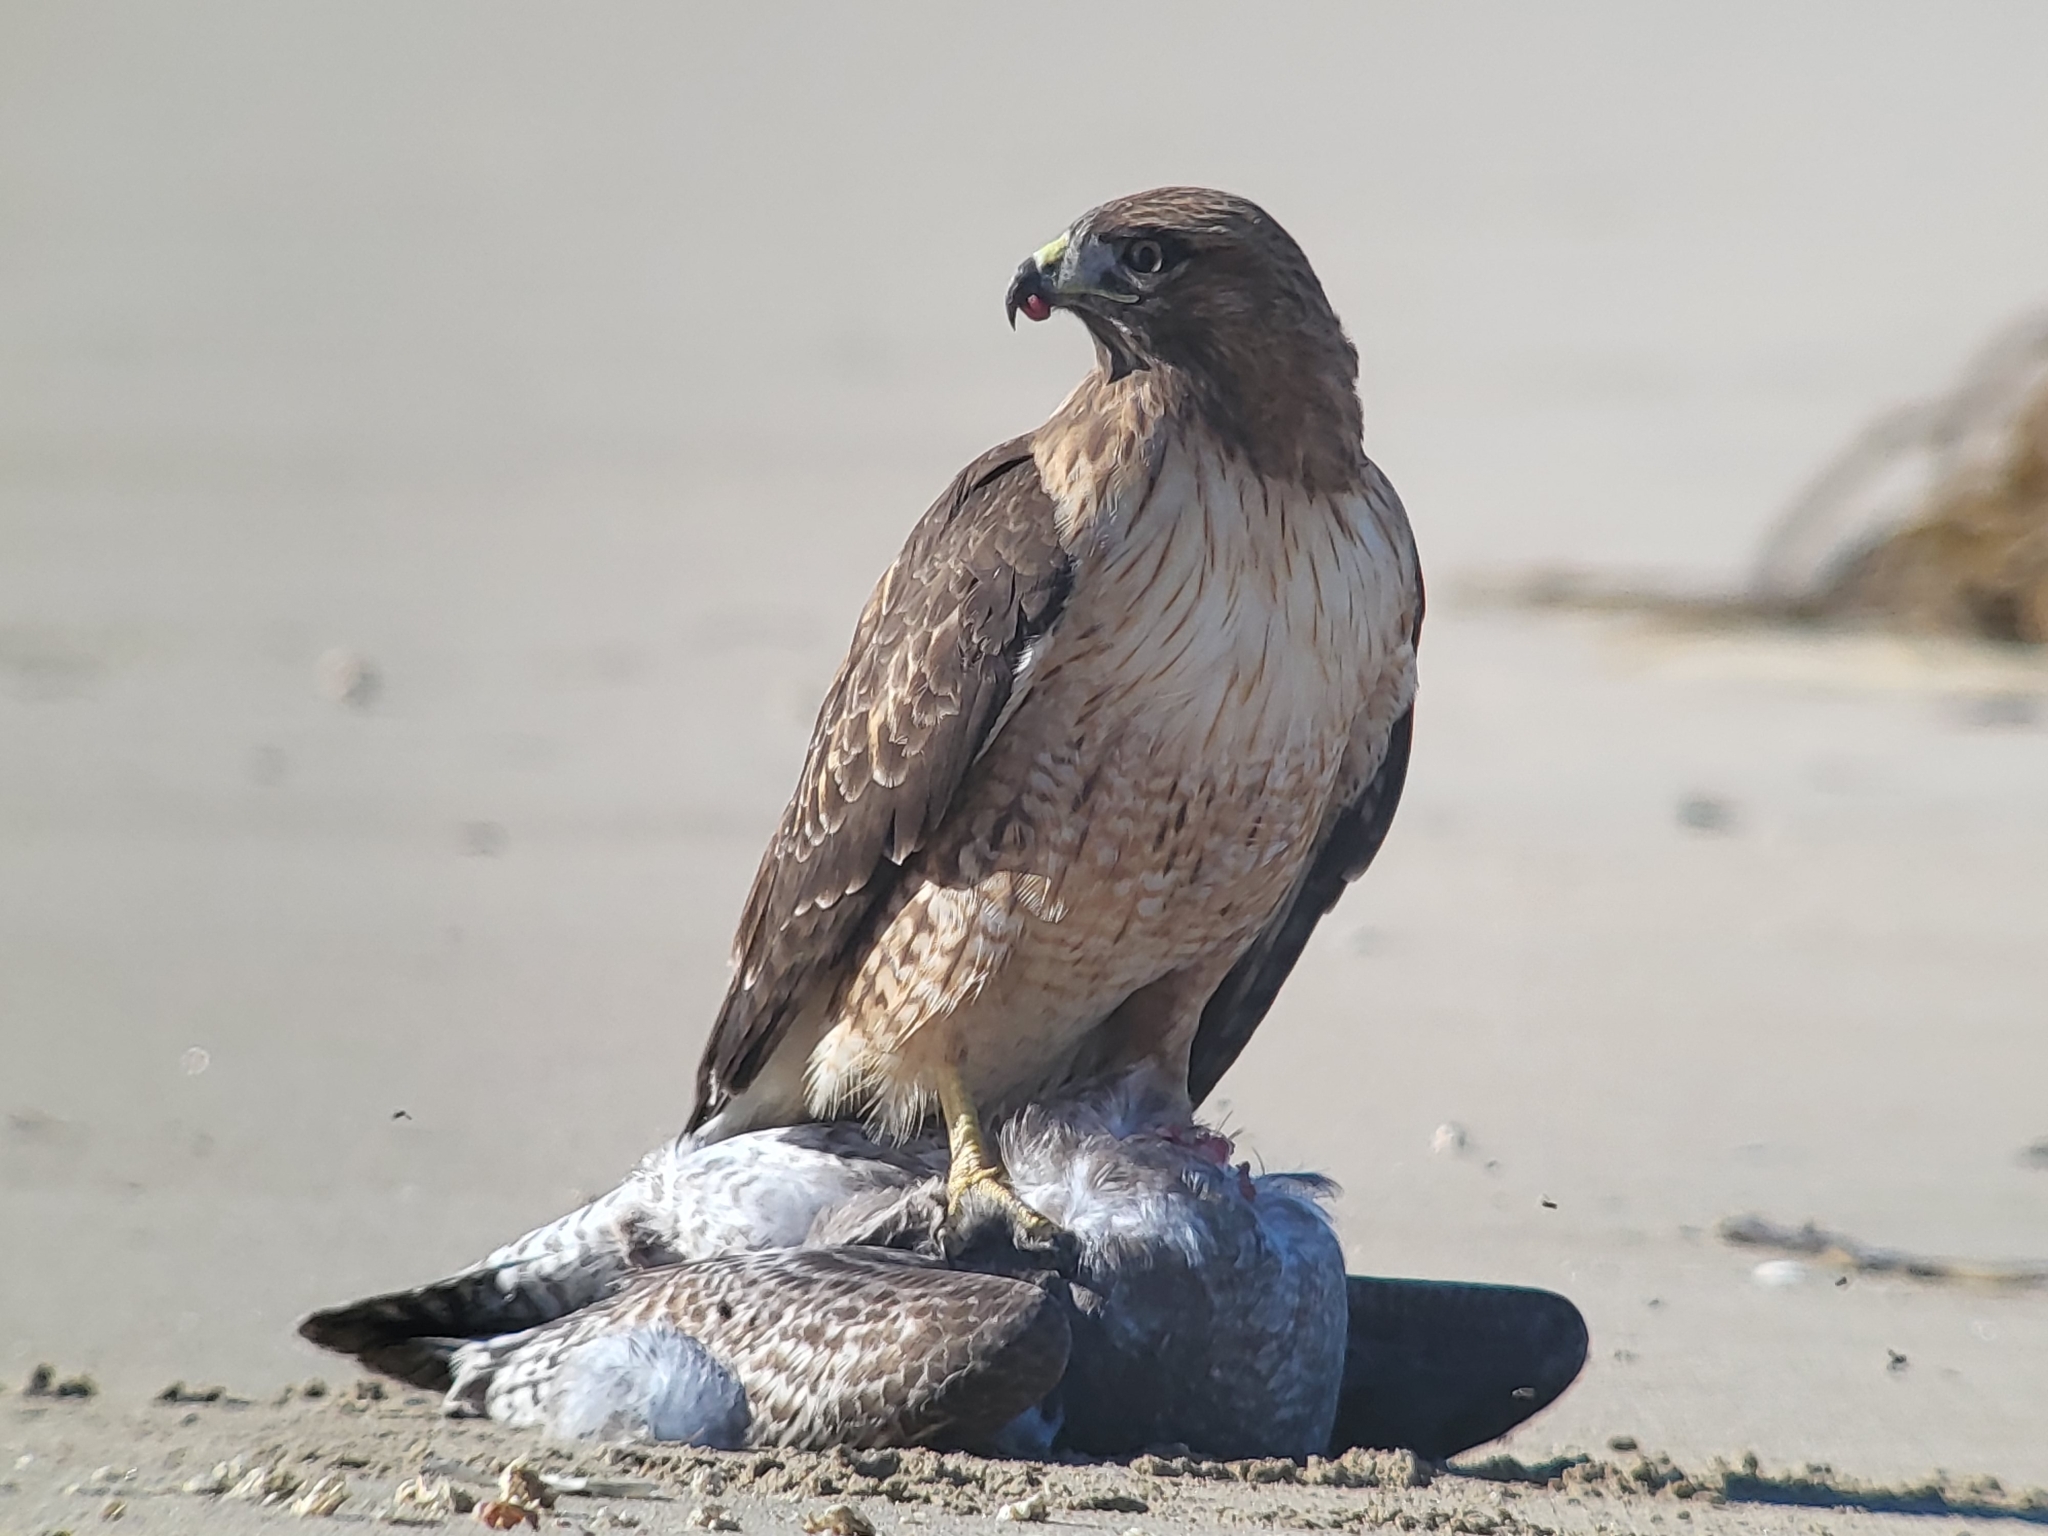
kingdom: Animalia
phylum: Chordata
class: Aves
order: Accipitriformes
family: Accipitridae
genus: Buteo
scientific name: Buteo jamaicensis
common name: Red-tailed hawk
